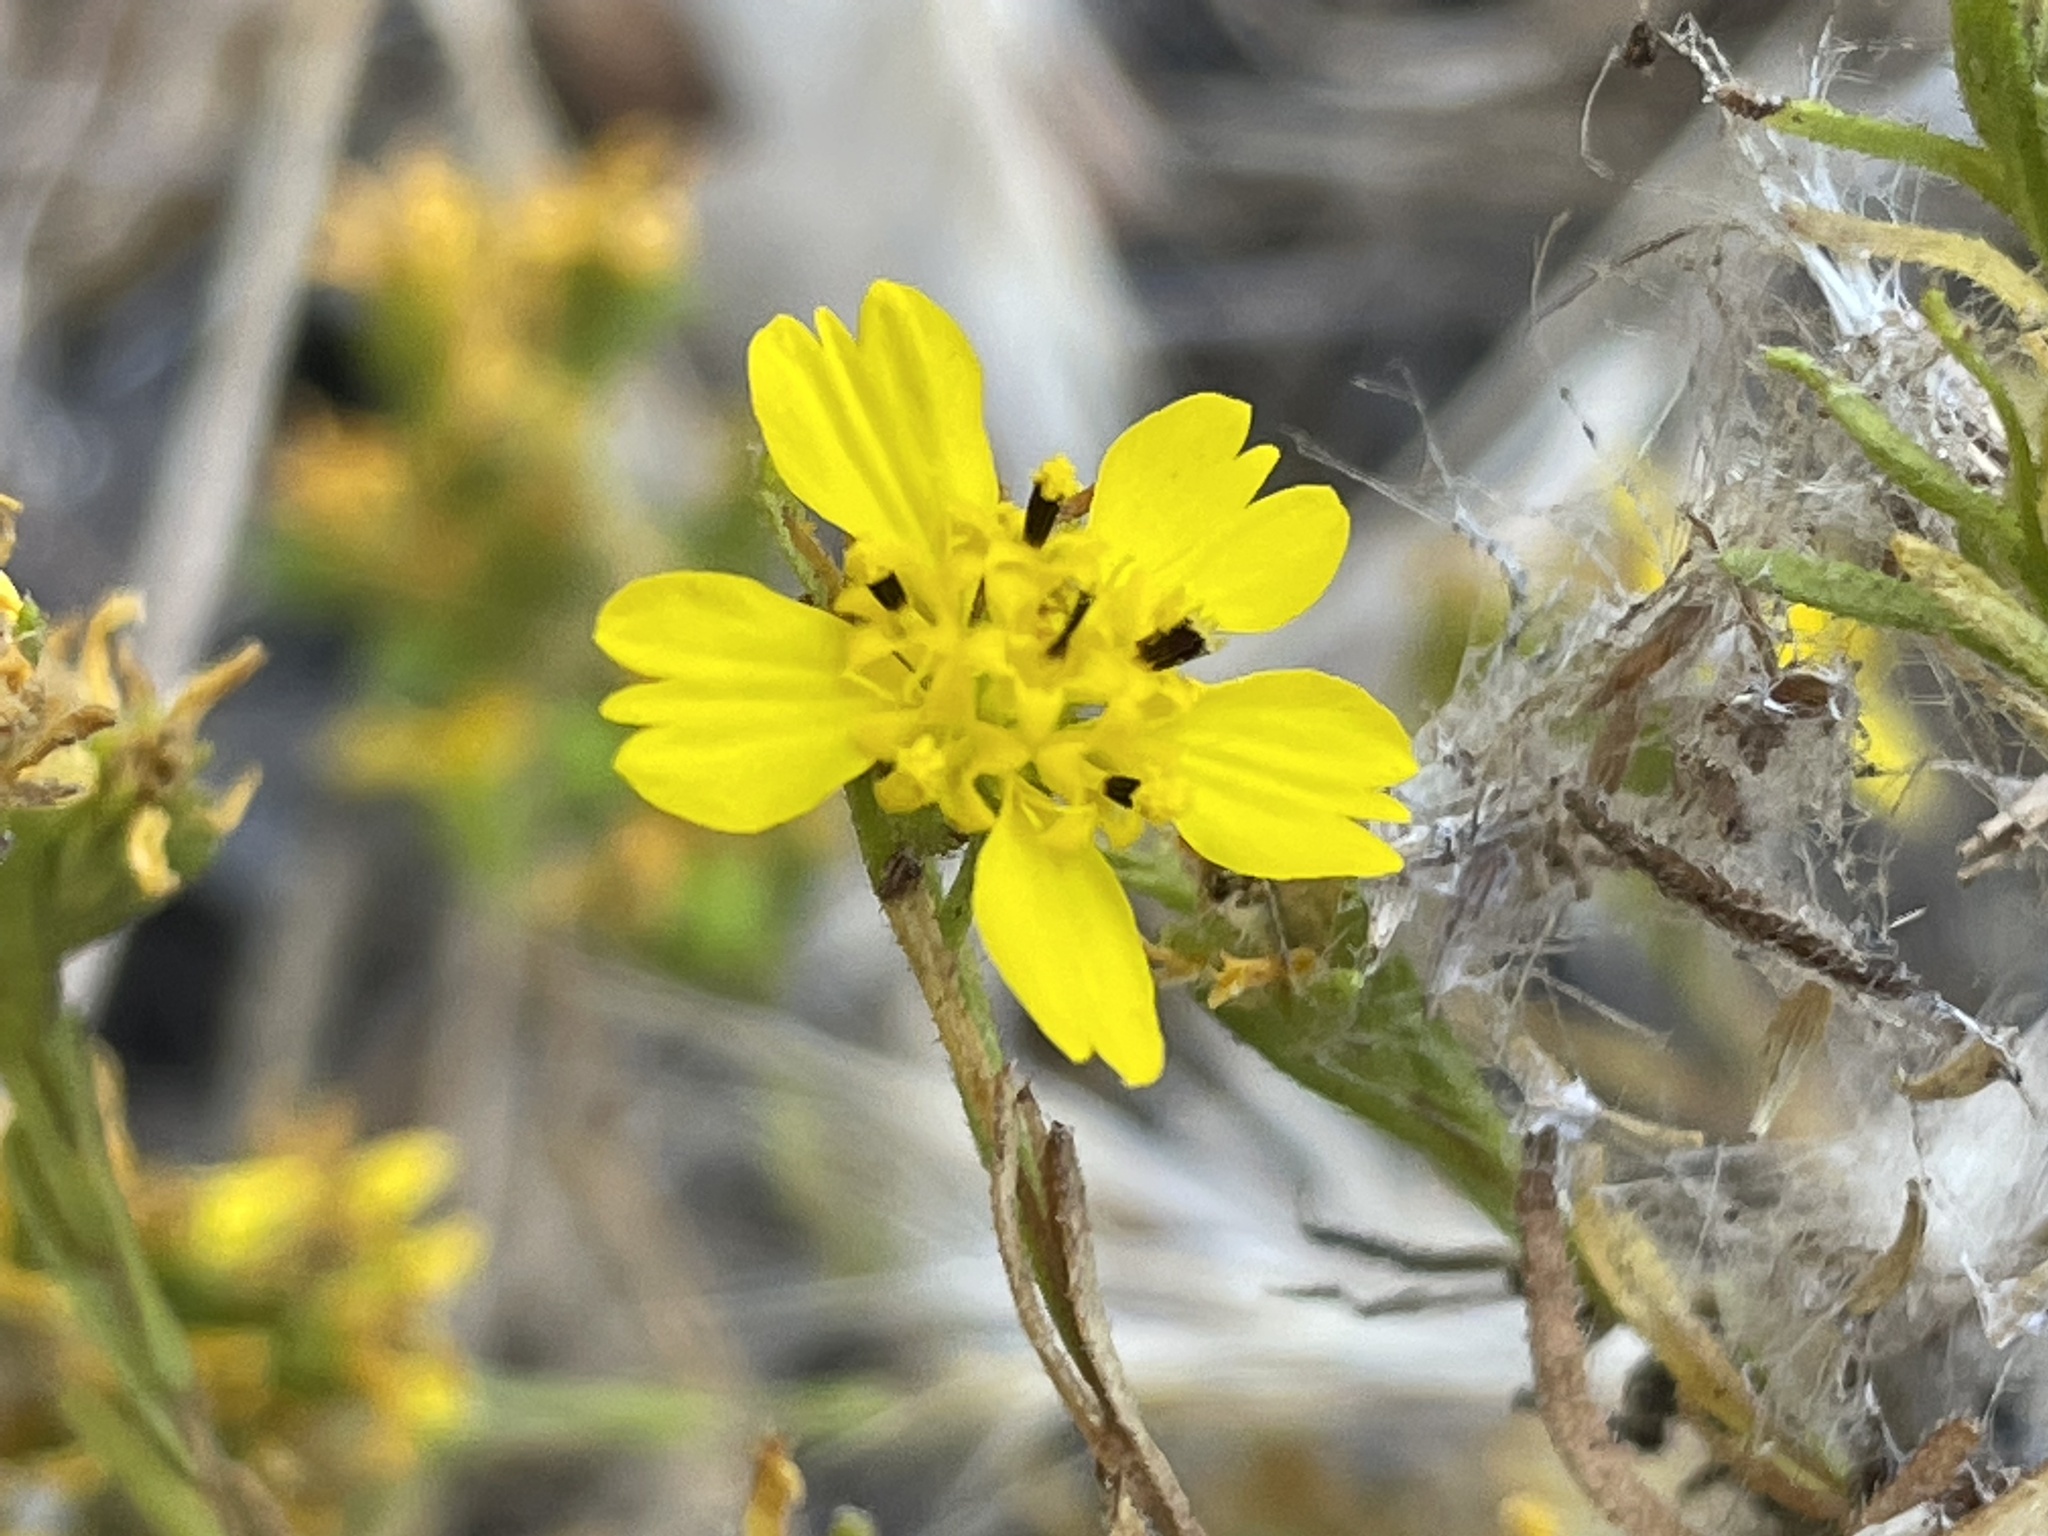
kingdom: Plantae
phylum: Tracheophyta
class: Magnoliopsida
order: Asterales
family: Asteraceae
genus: Deinandra
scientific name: Deinandra fasciculata
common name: Clustered tarweed
